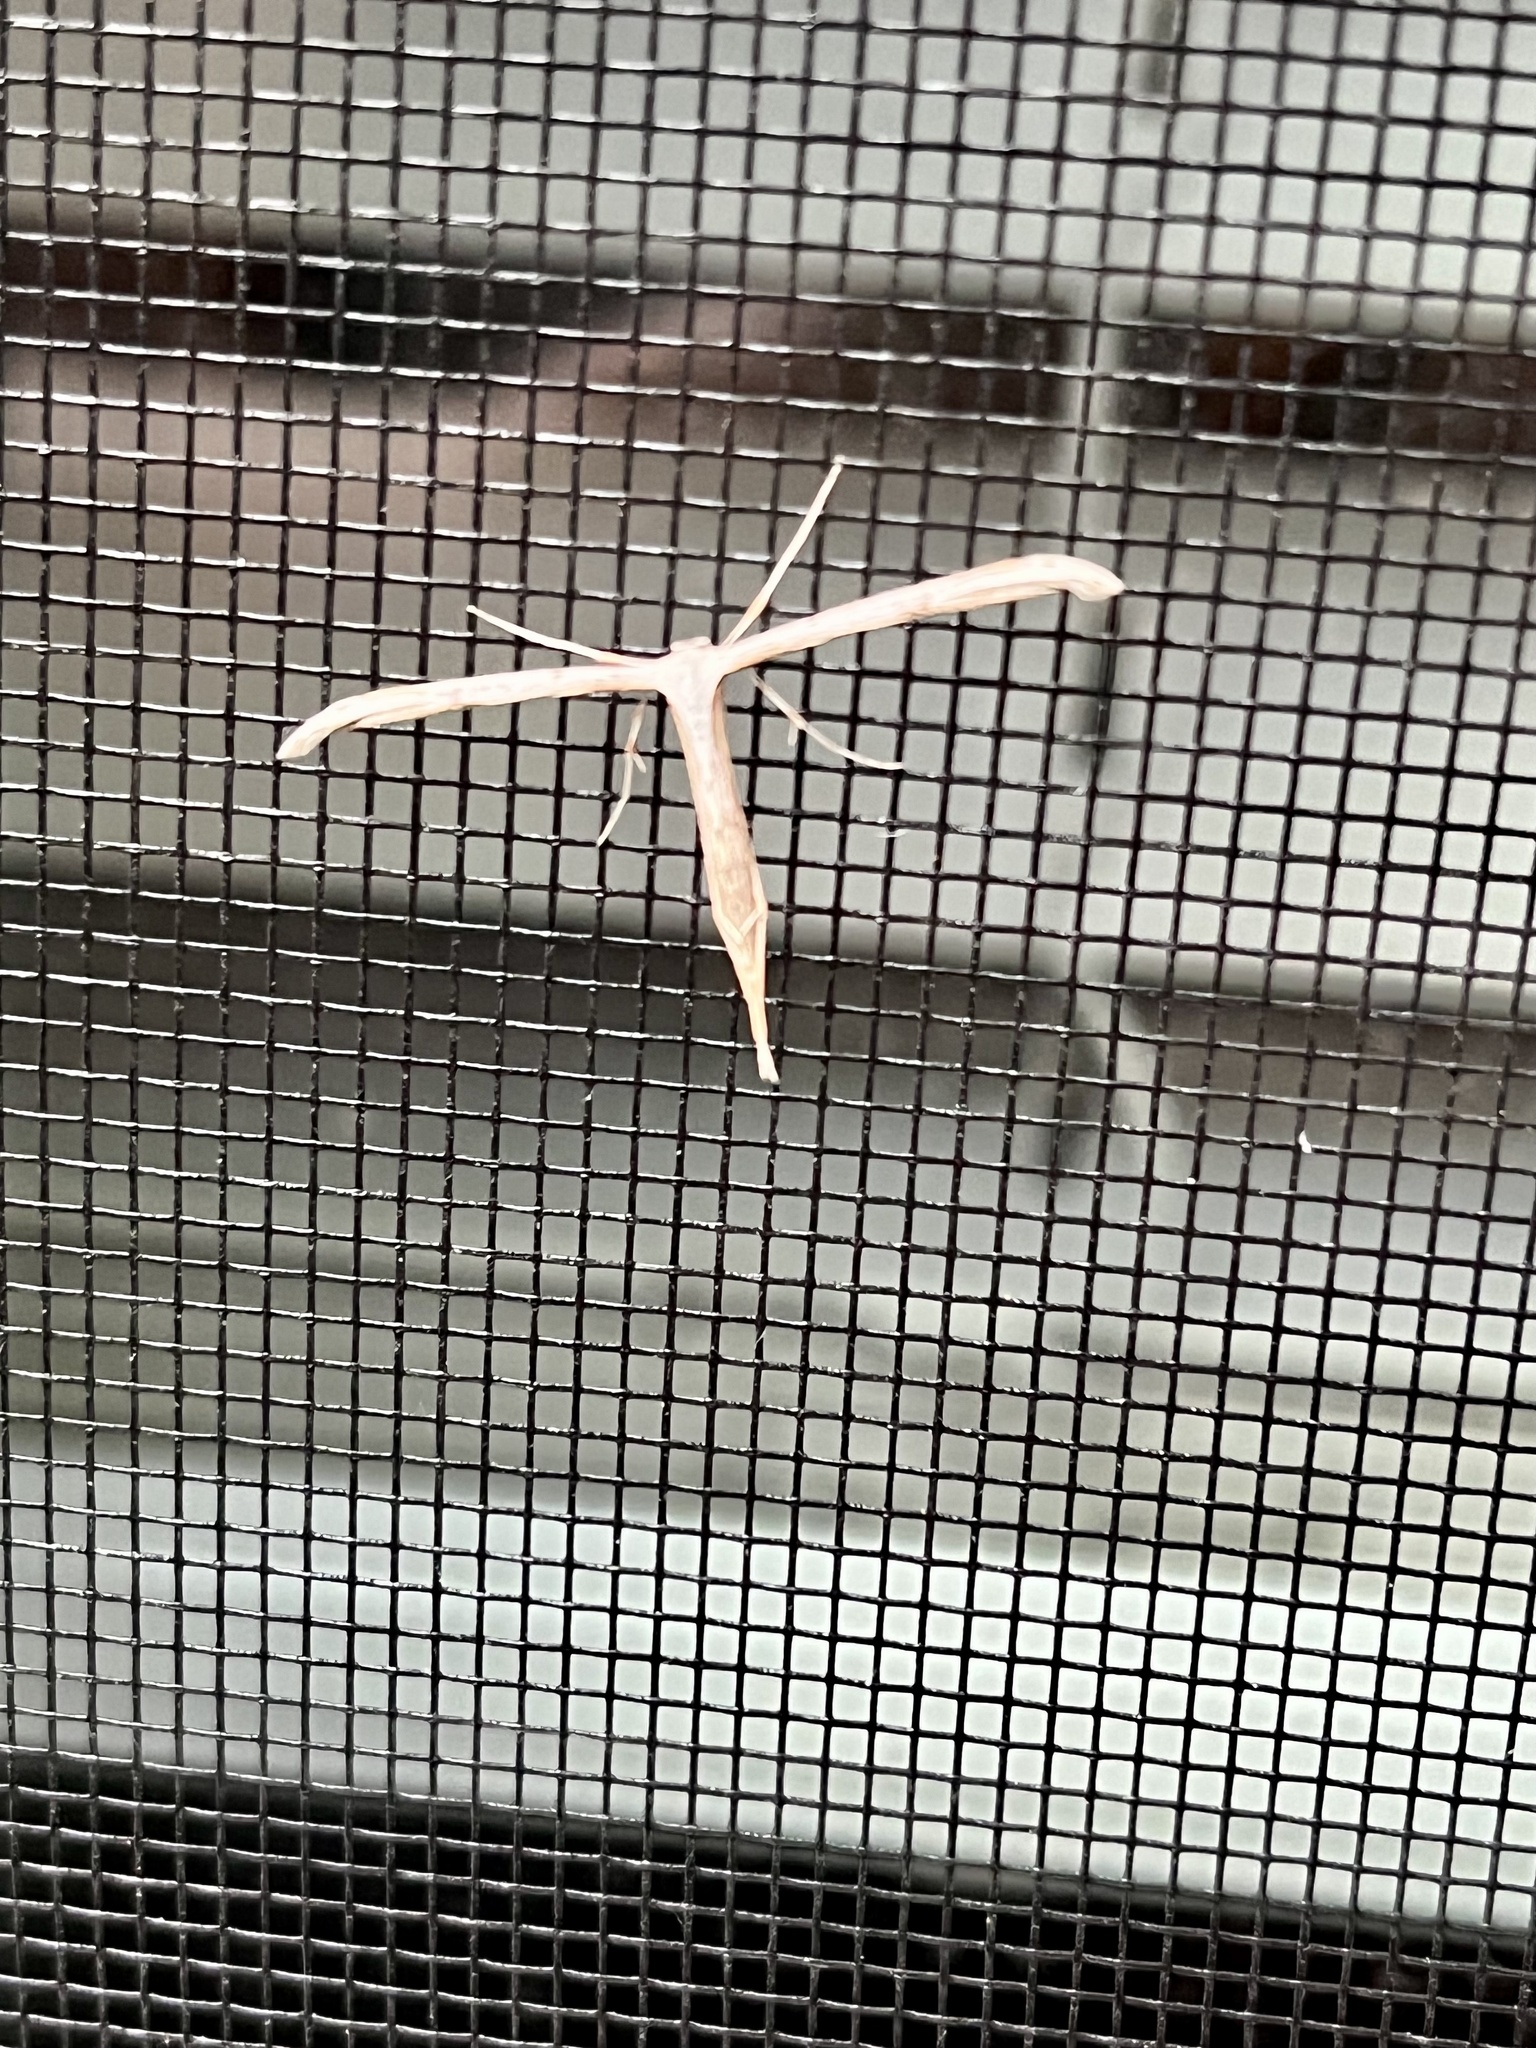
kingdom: Animalia
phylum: Arthropoda
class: Insecta
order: Lepidoptera
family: Pterophoridae
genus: Emmelina
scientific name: Emmelina monodactyla
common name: Common plume
